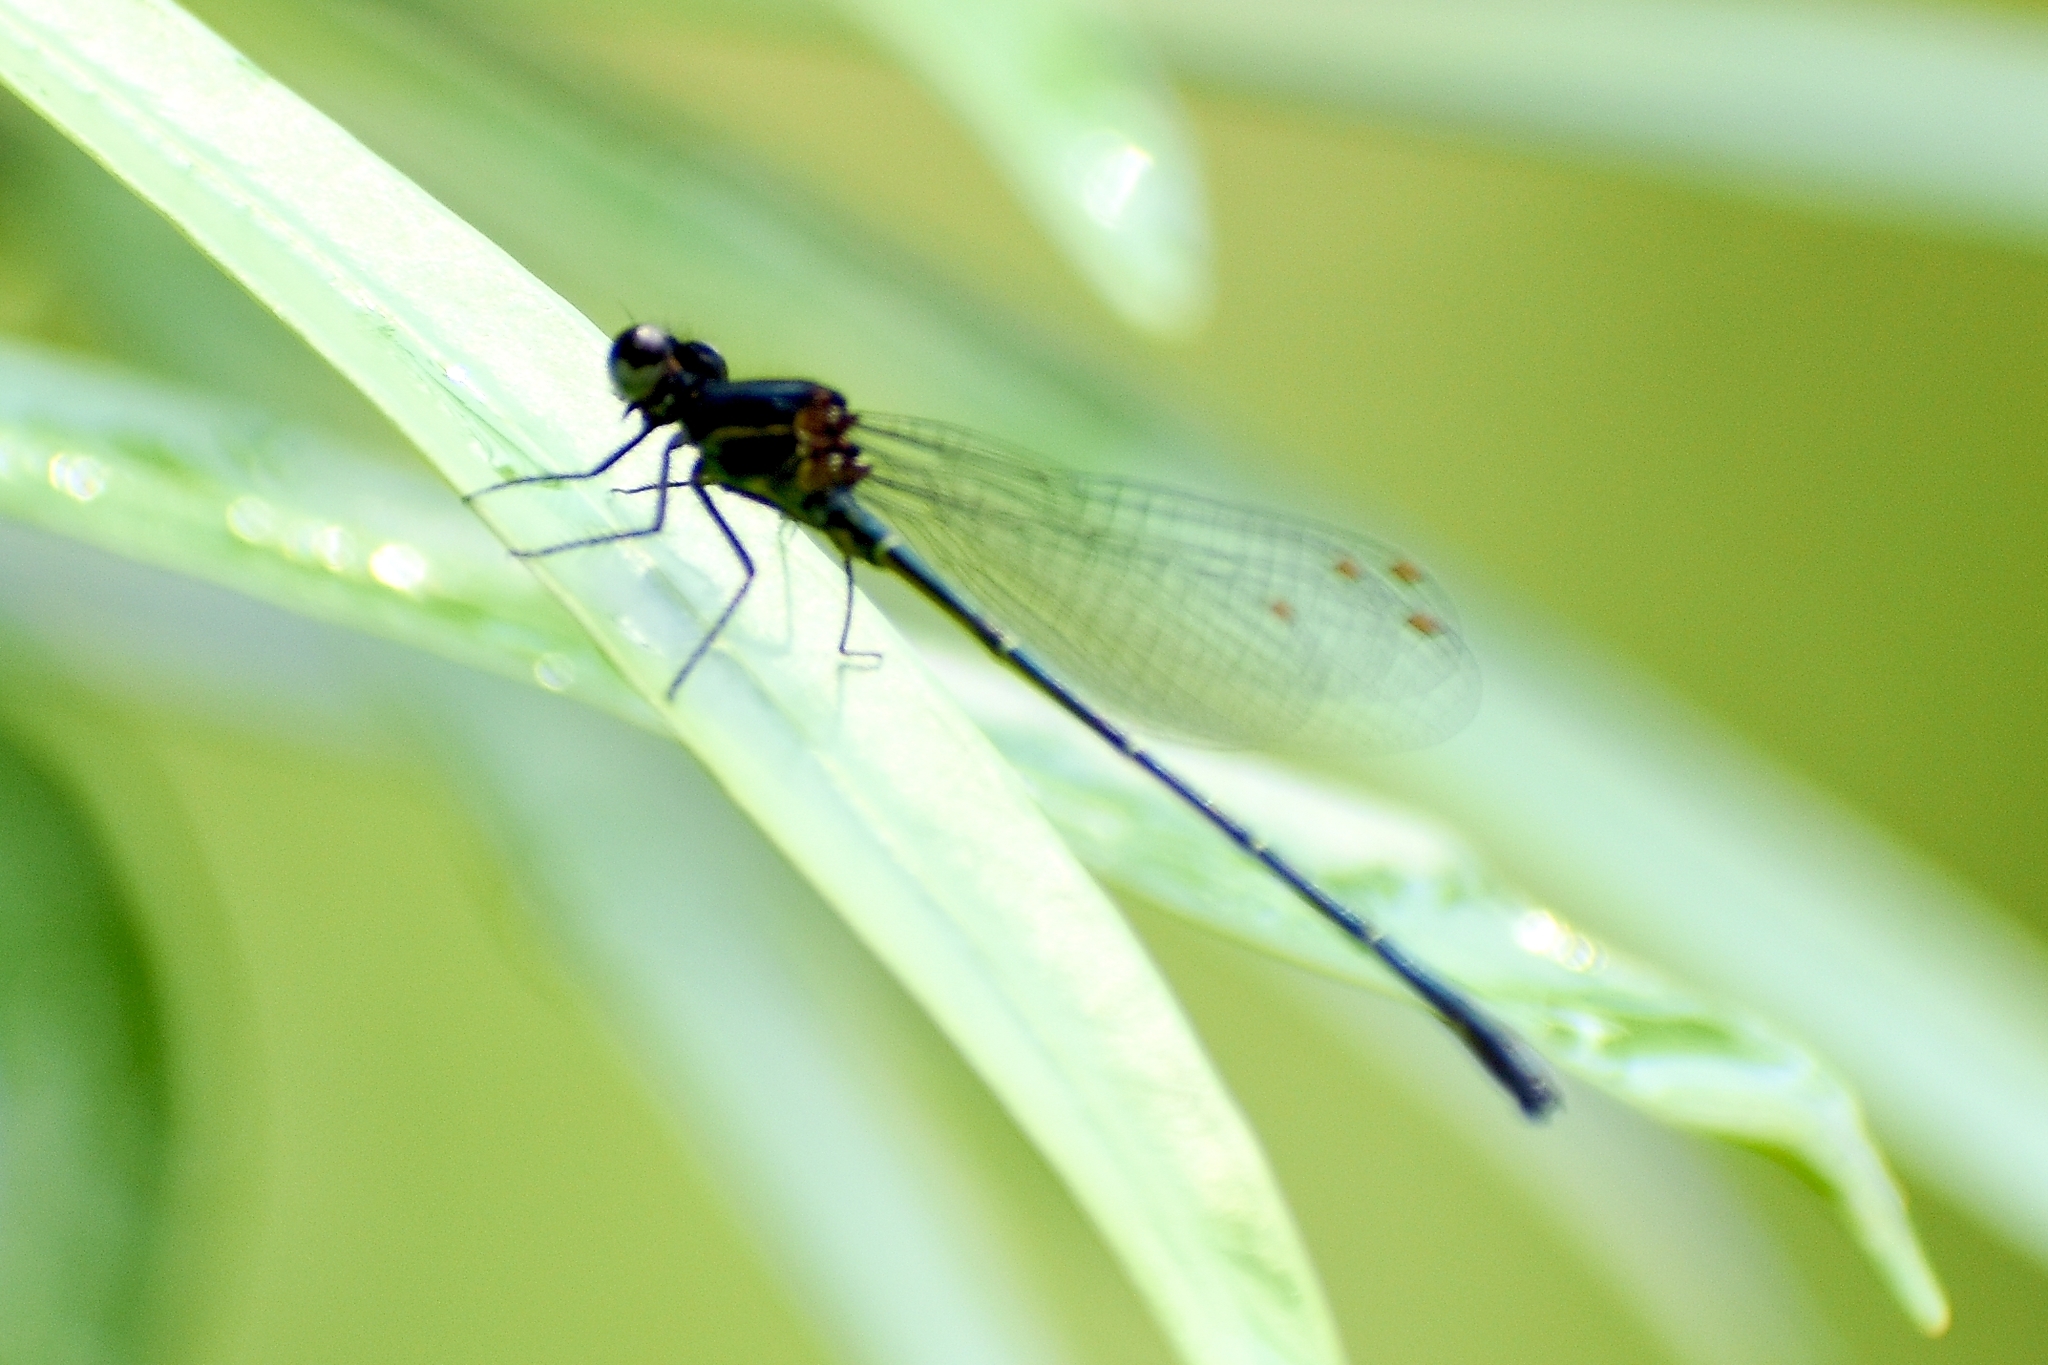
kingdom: Animalia
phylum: Arthropoda
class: Insecta
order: Odonata
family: Platycnemididae
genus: Onychargia
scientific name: Onychargia atrocyana
